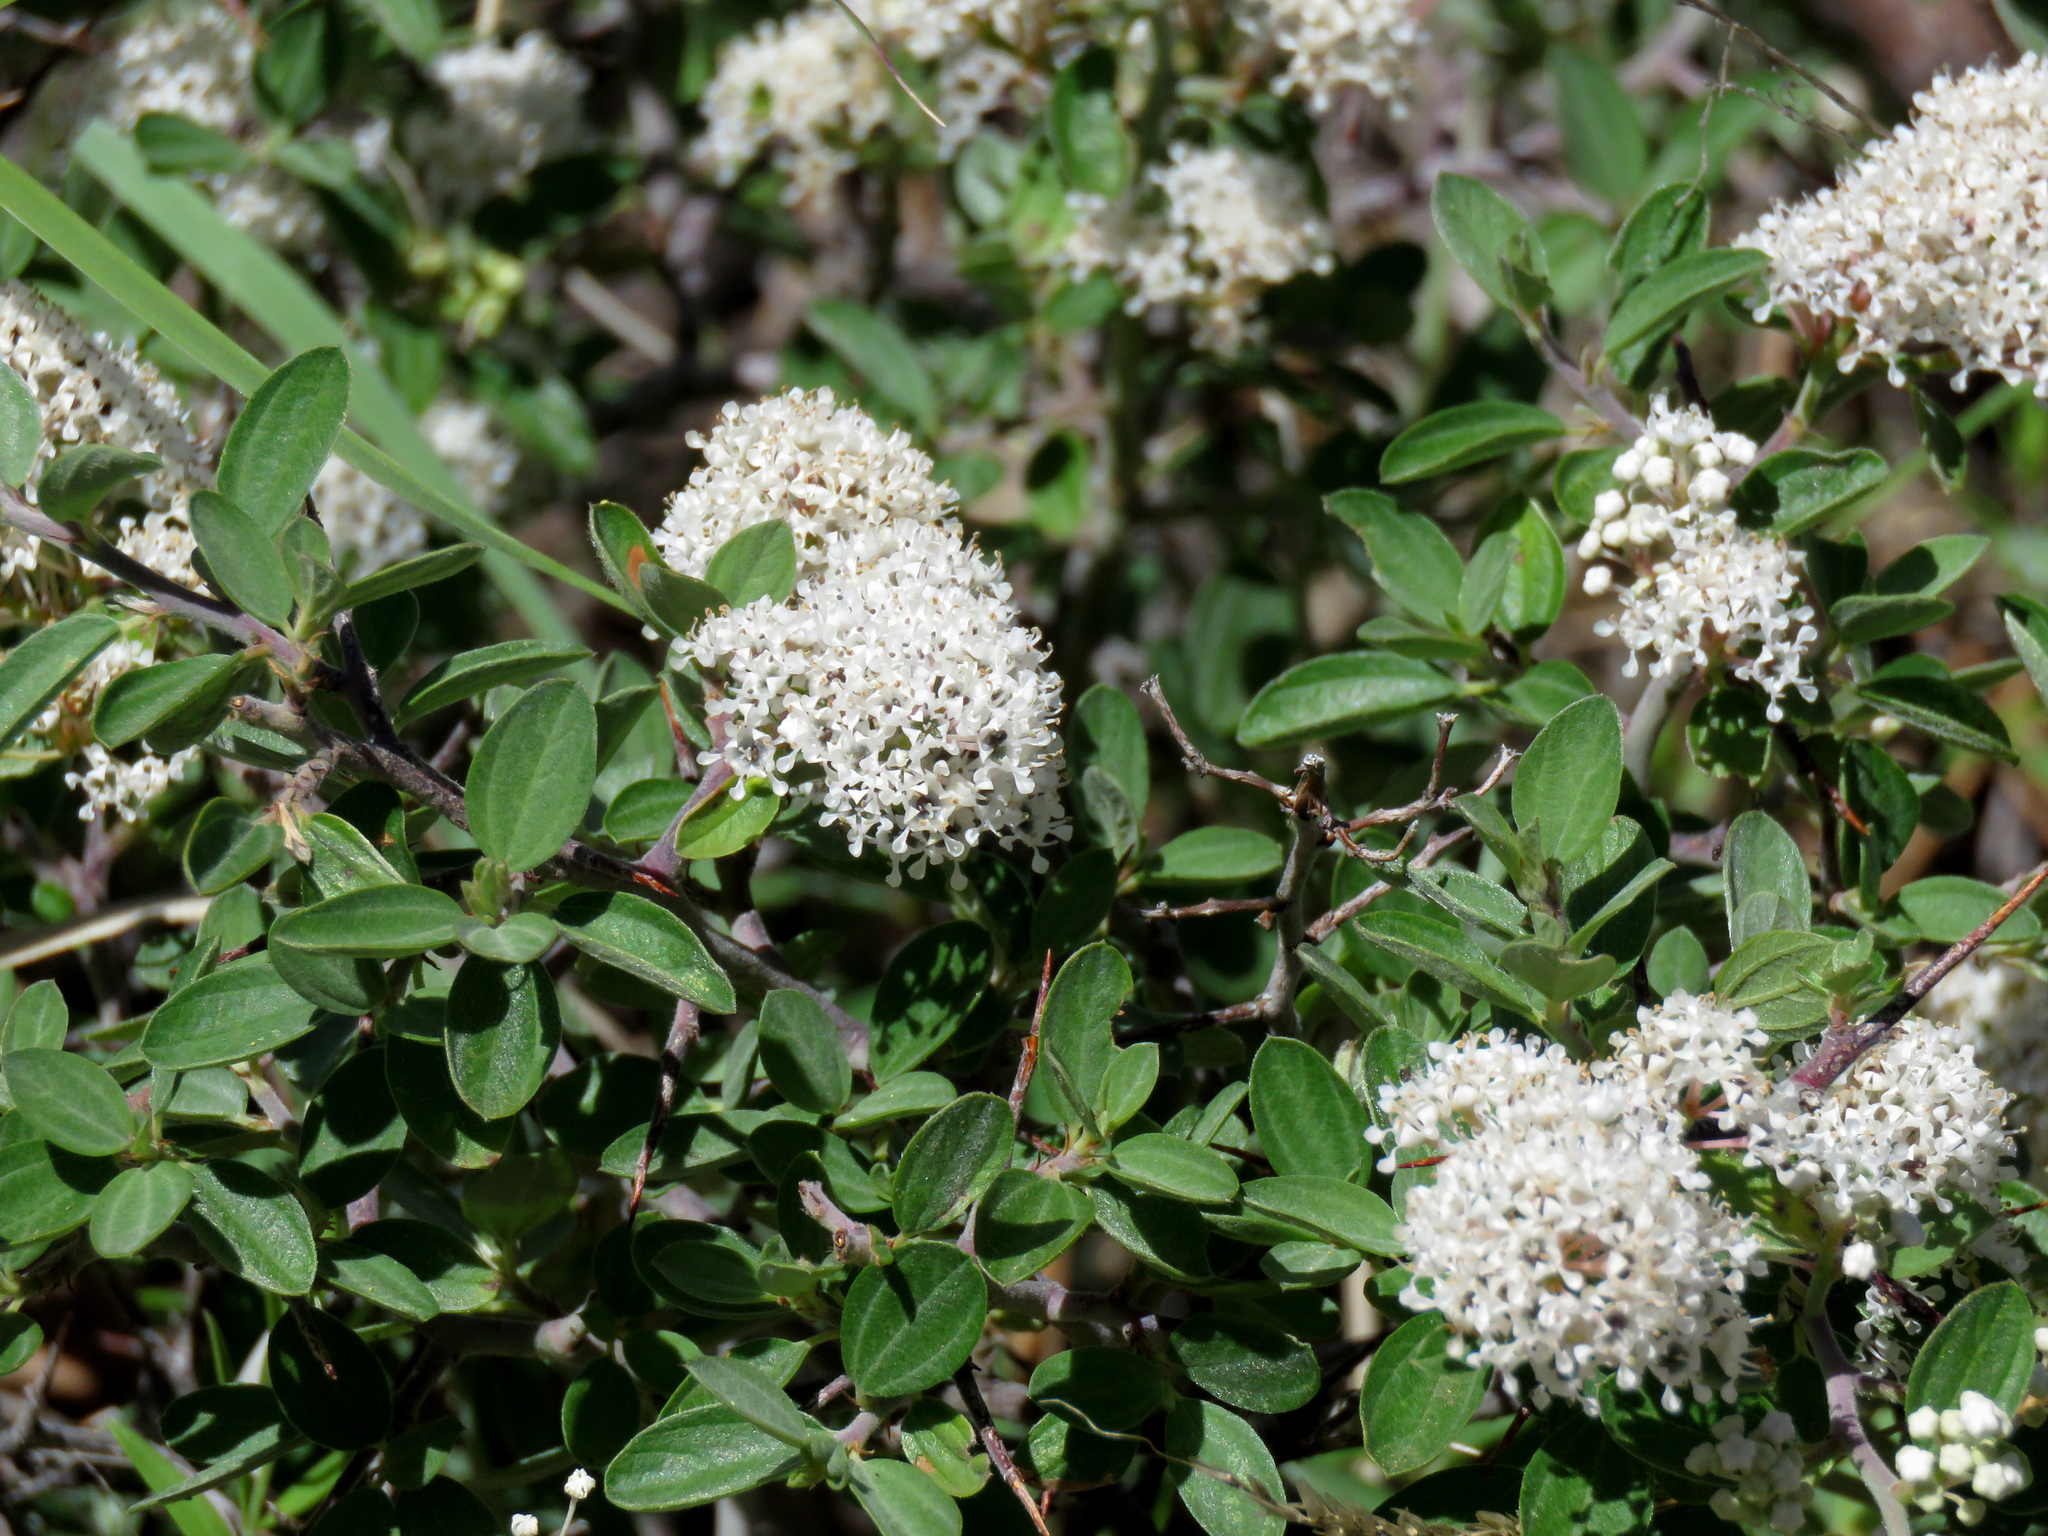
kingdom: Plantae
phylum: Tracheophyta
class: Magnoliopsida
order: Rosales
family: Rhamnaceae
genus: Ceanothus
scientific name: Ceanothus fendleri
